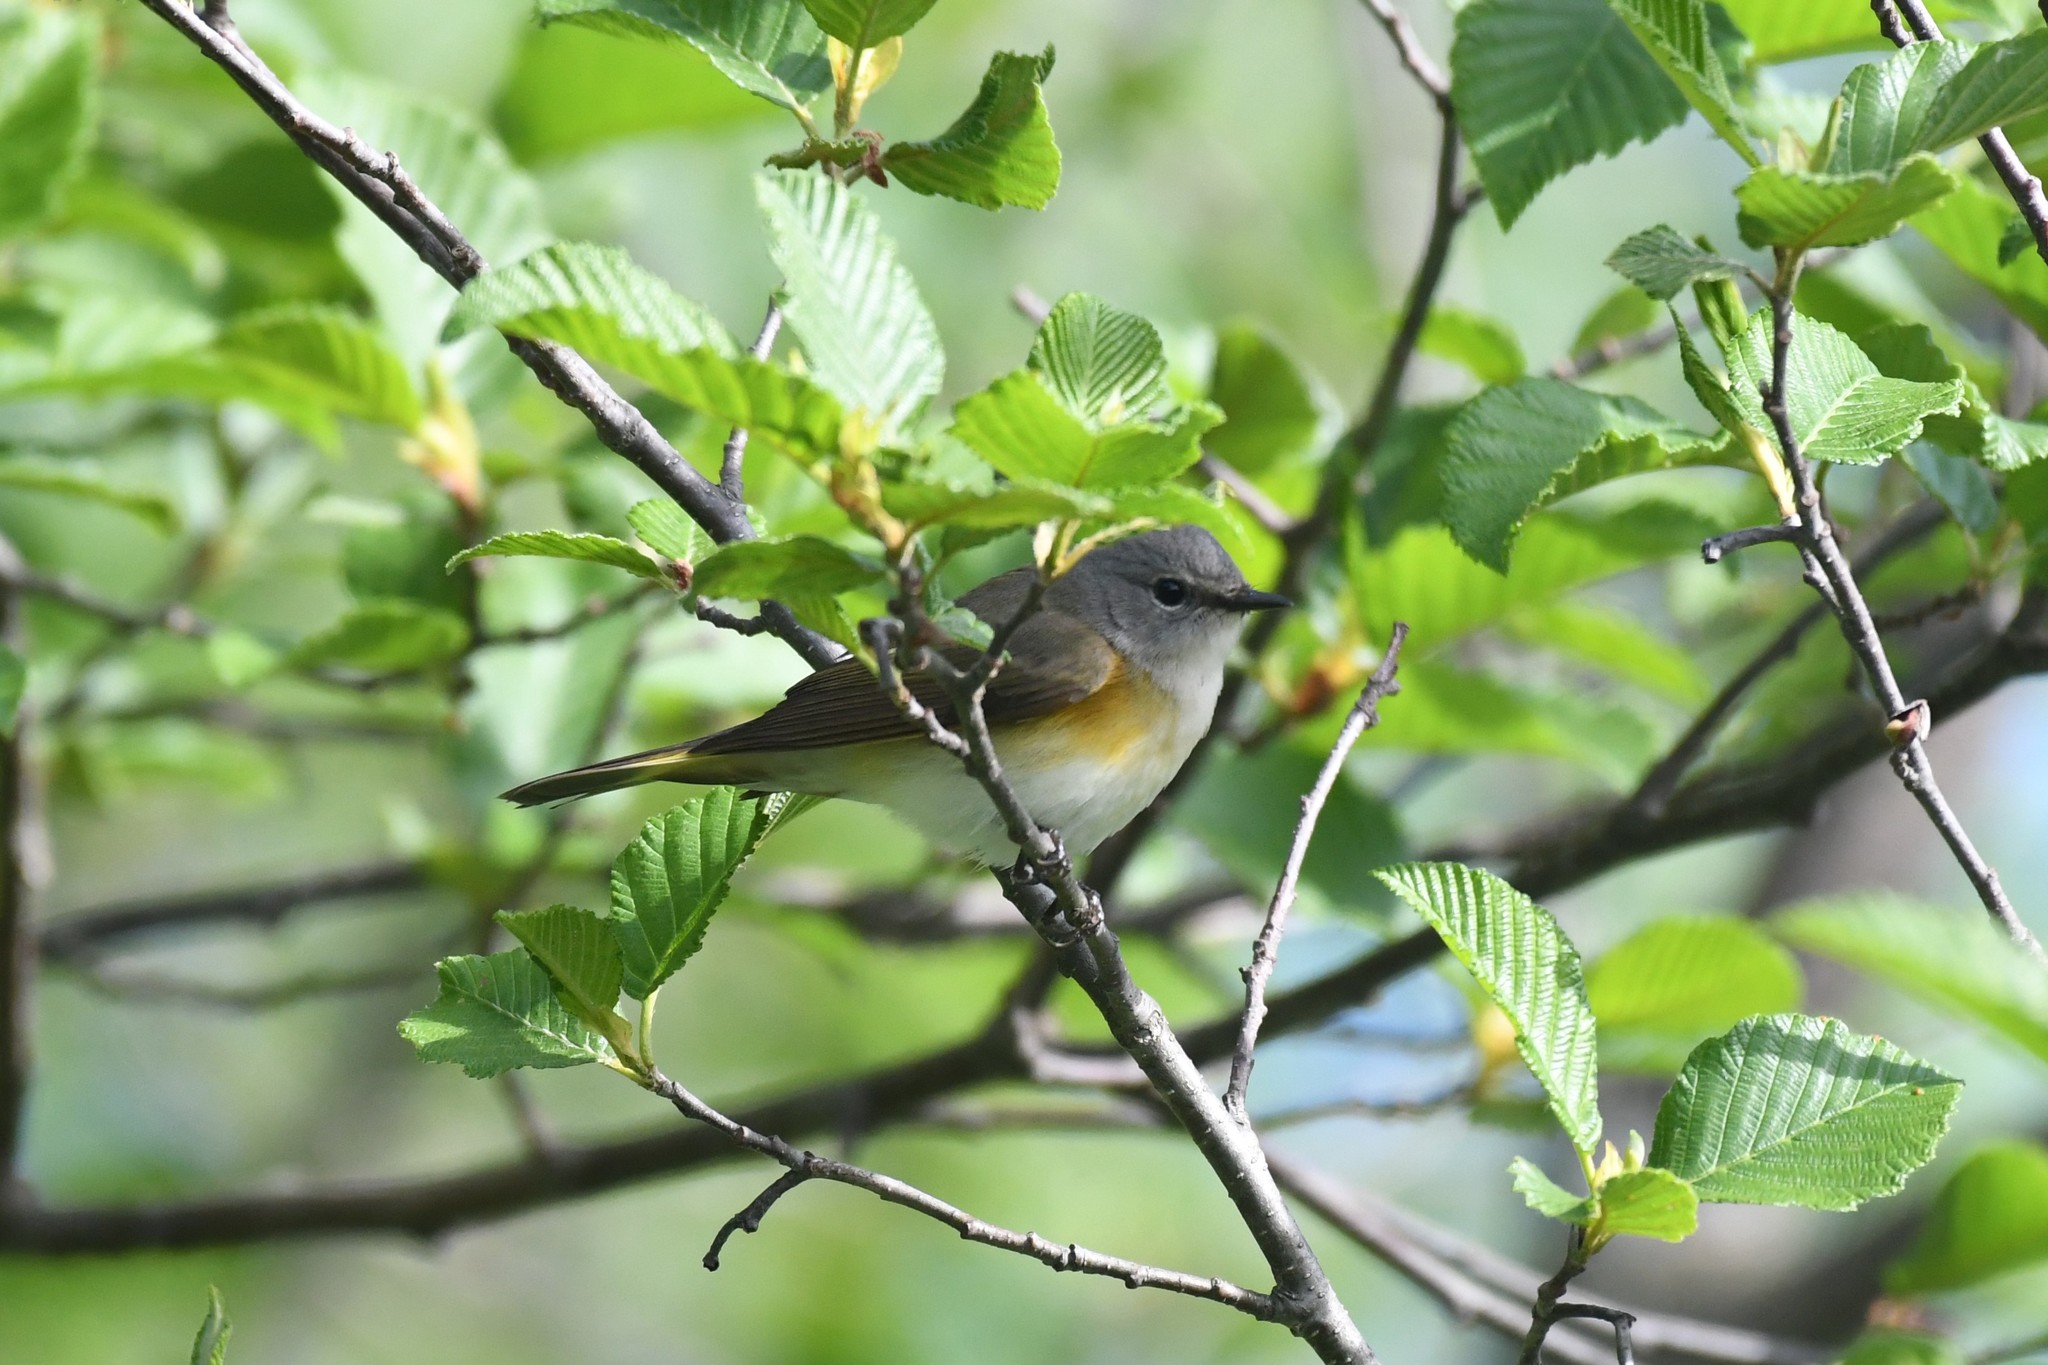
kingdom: Animalia
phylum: Chordata
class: Aves
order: Passeriformes
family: Parulidae
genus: Setophaga
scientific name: Setophaga ruticilla
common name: American redstart
